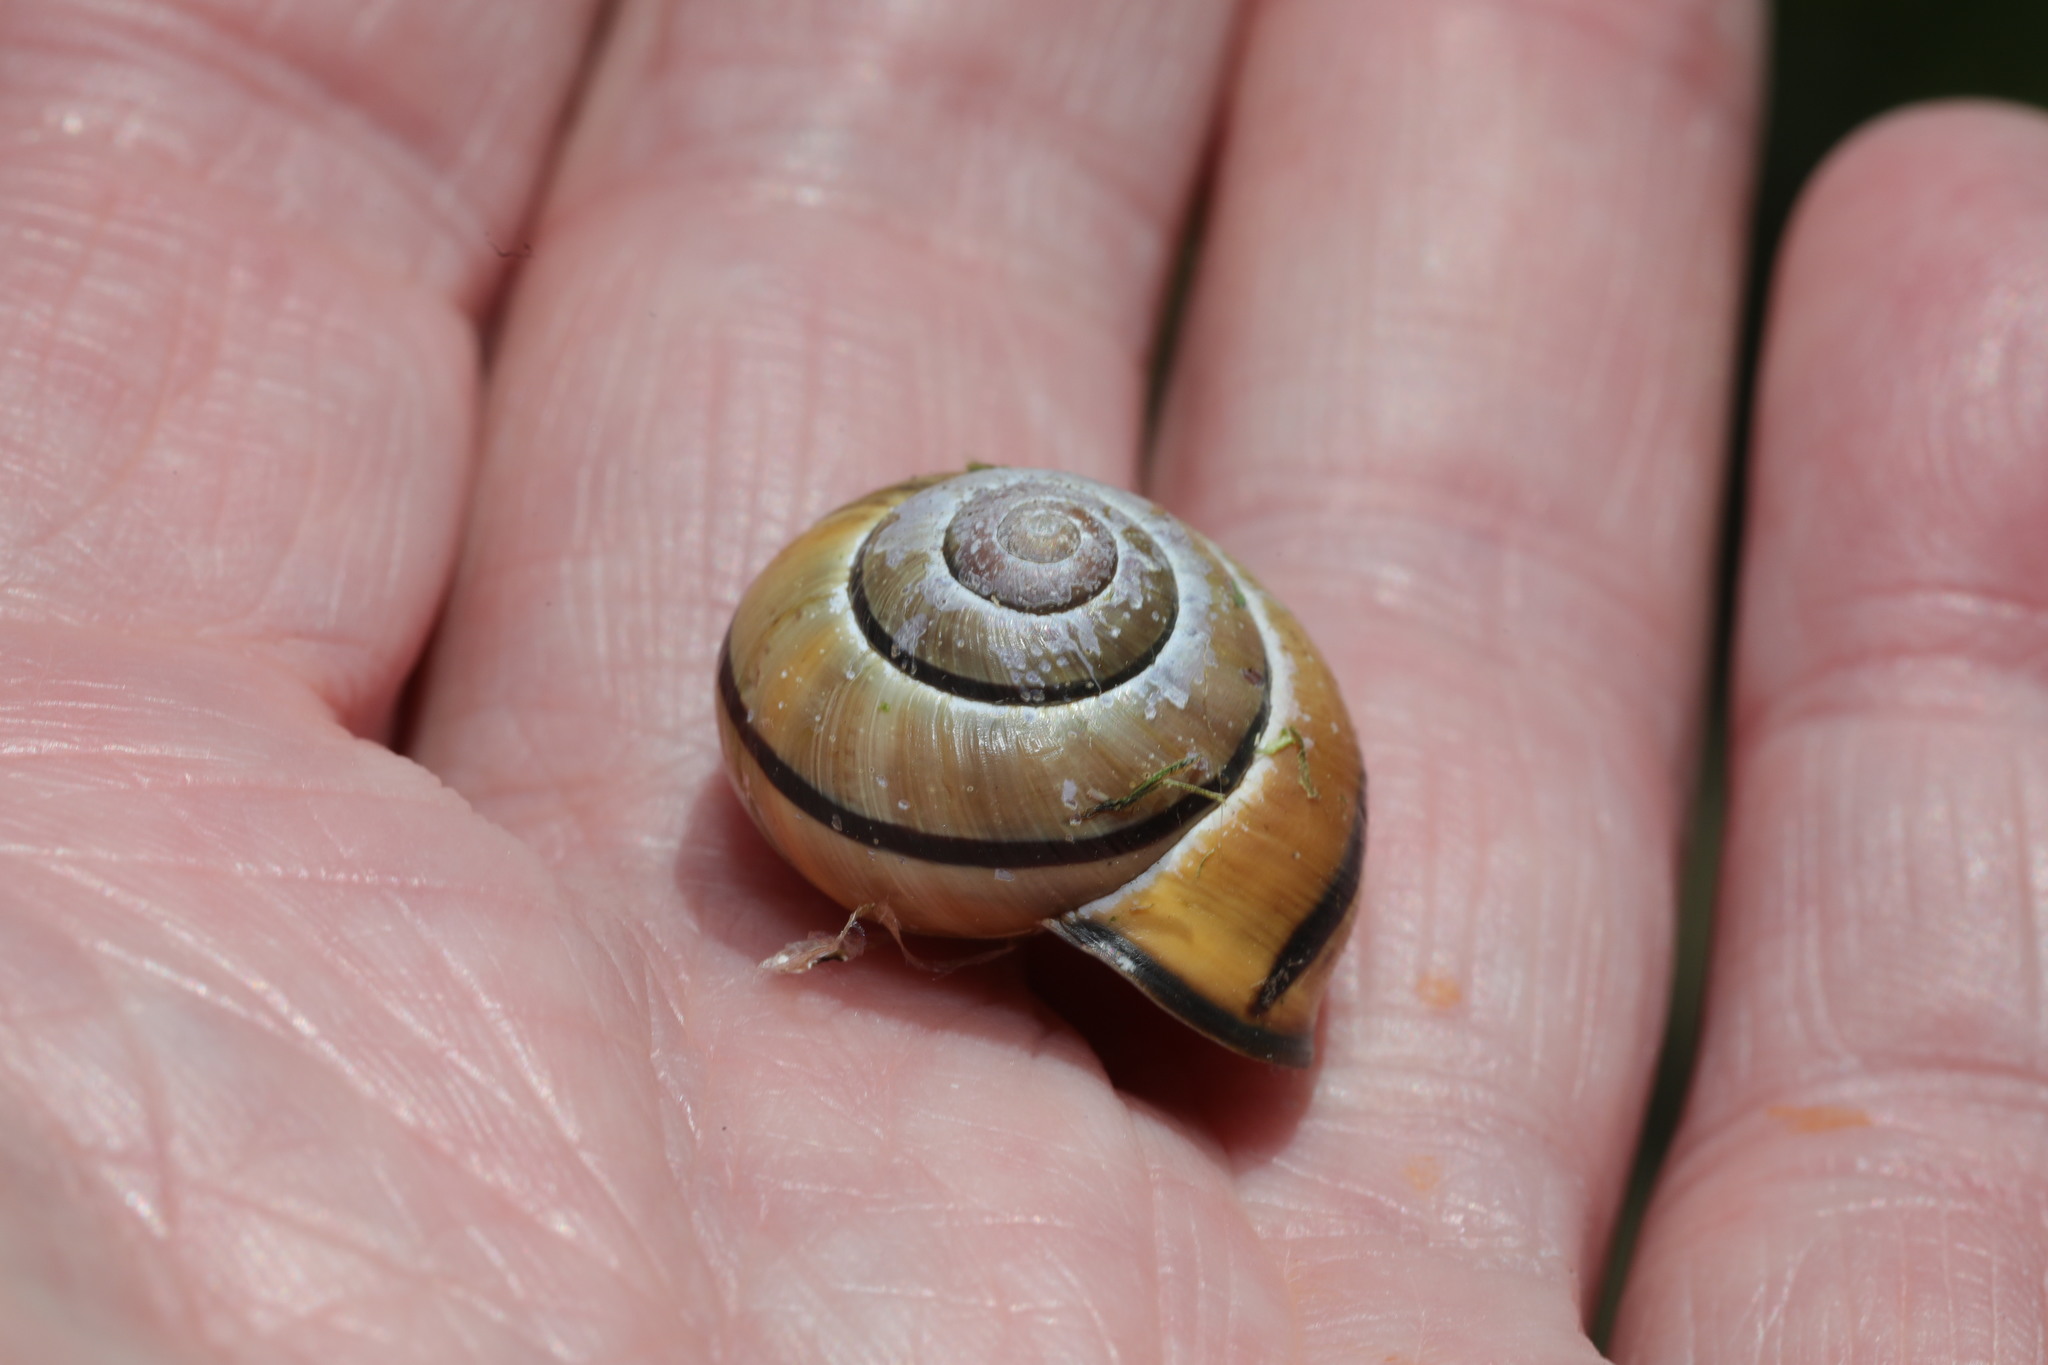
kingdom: Animalia
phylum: Mollusca
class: Gastropoda
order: Stylommatophora
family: Helicidae
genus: Cepaea
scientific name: Cepaea nemoralis
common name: Grovesnail
